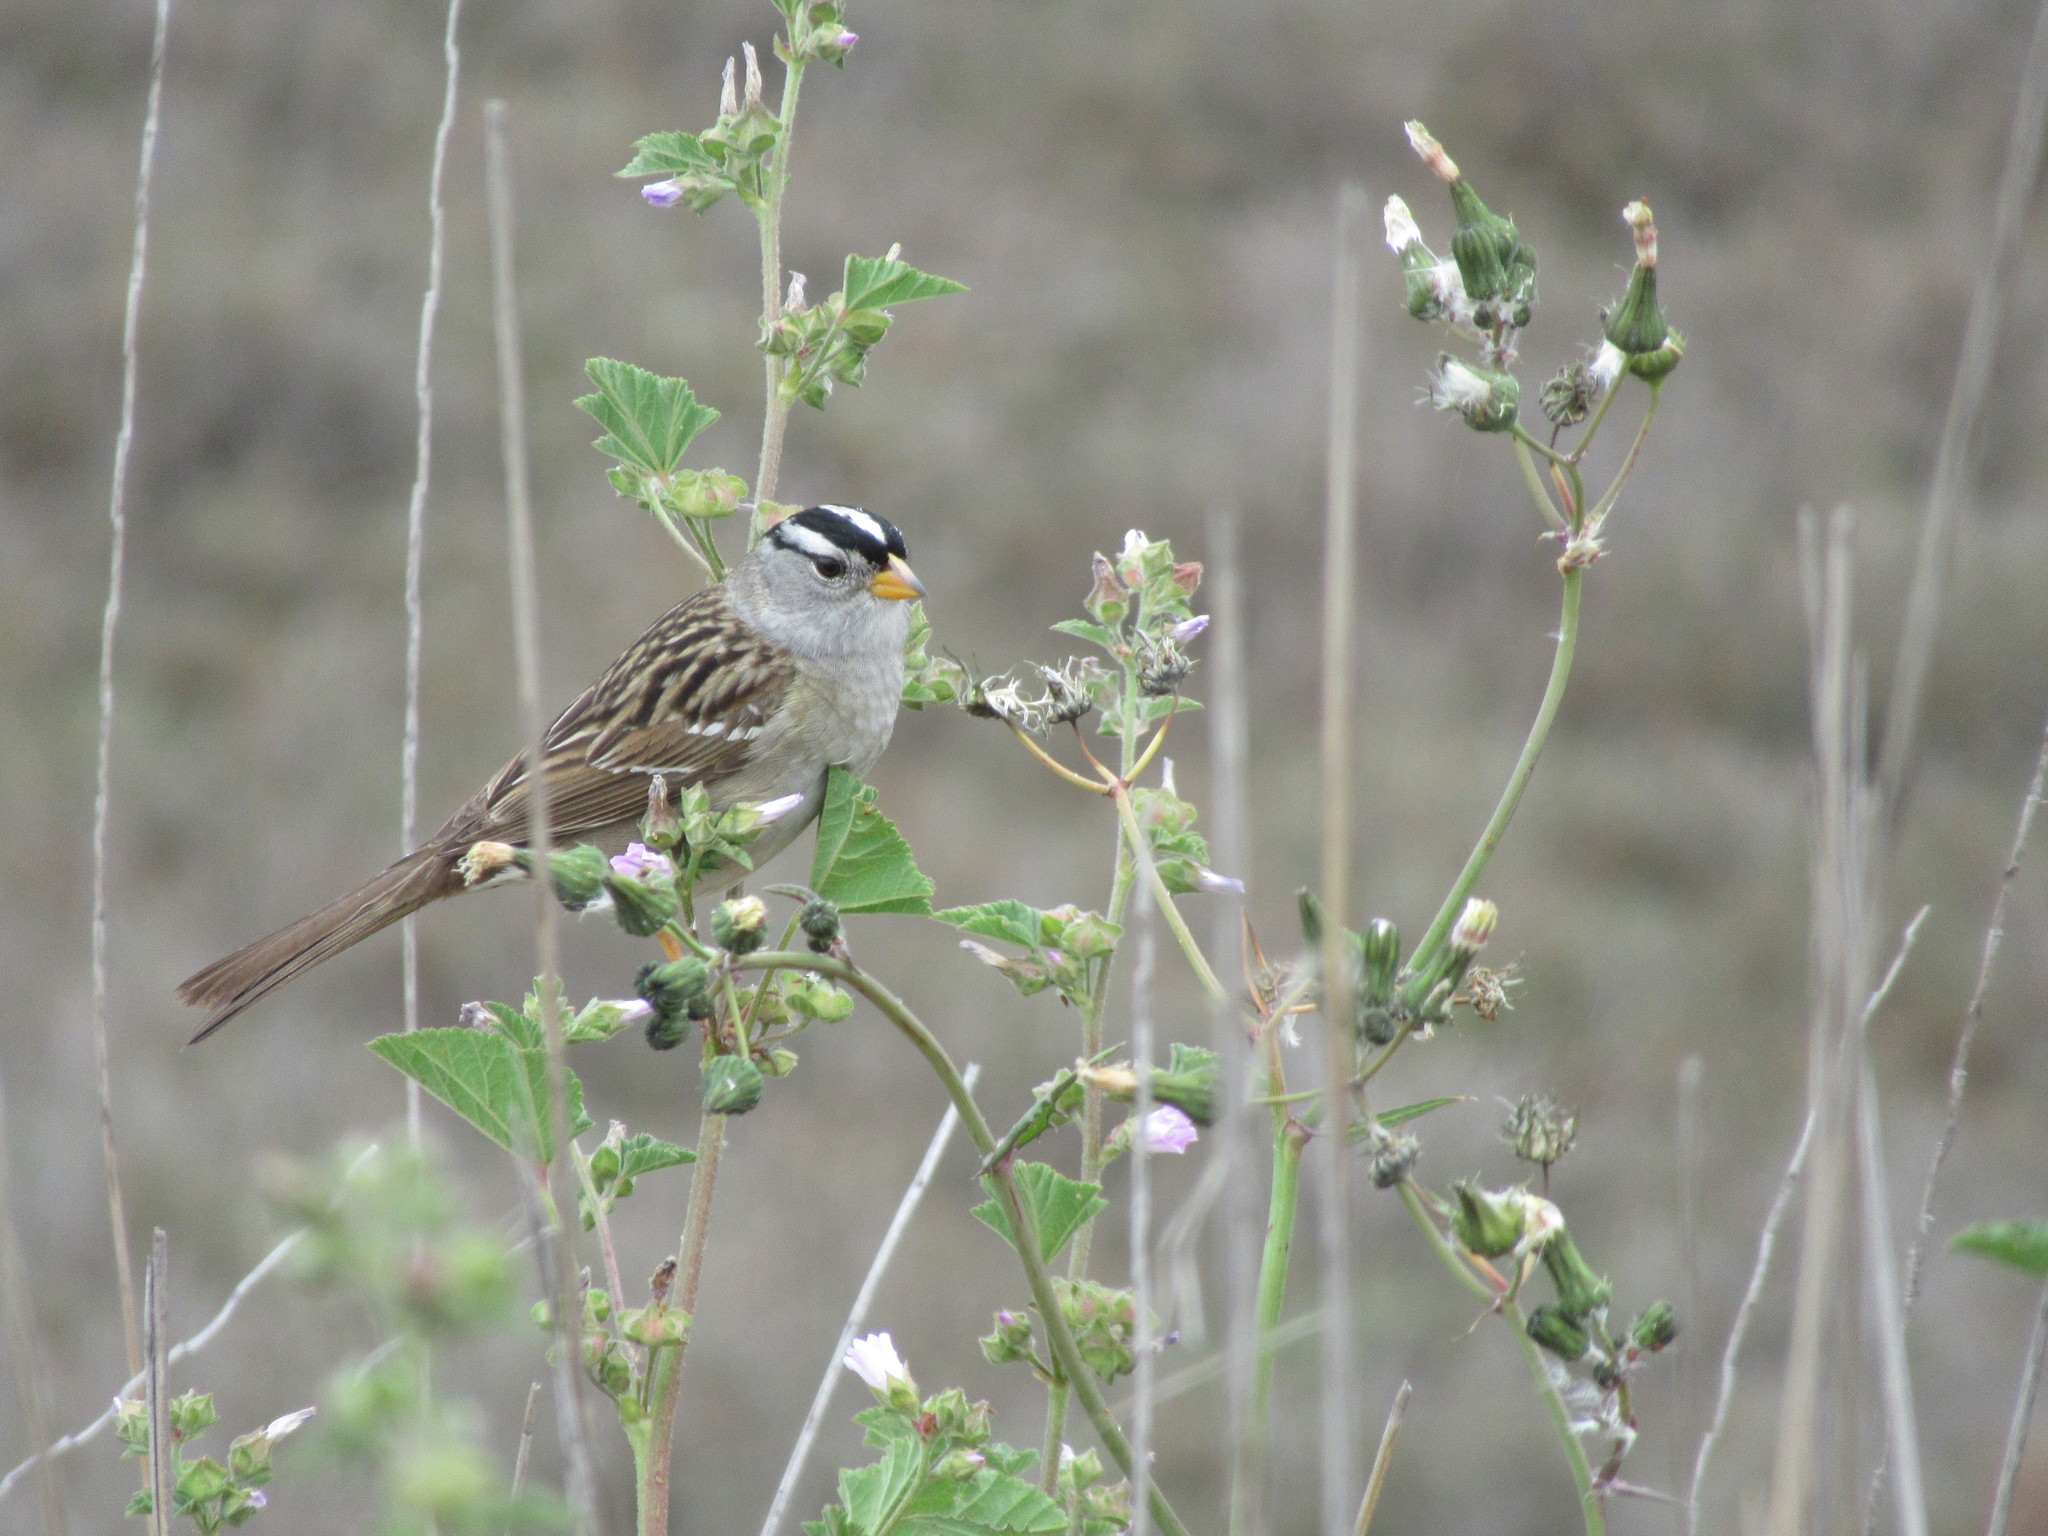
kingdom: Animalia
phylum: Chordata
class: Aves
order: Passeriformes
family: Passerellidae
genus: Zonotrichia
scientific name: Zonotrichia leucophrys
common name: White-crowned sparrow
